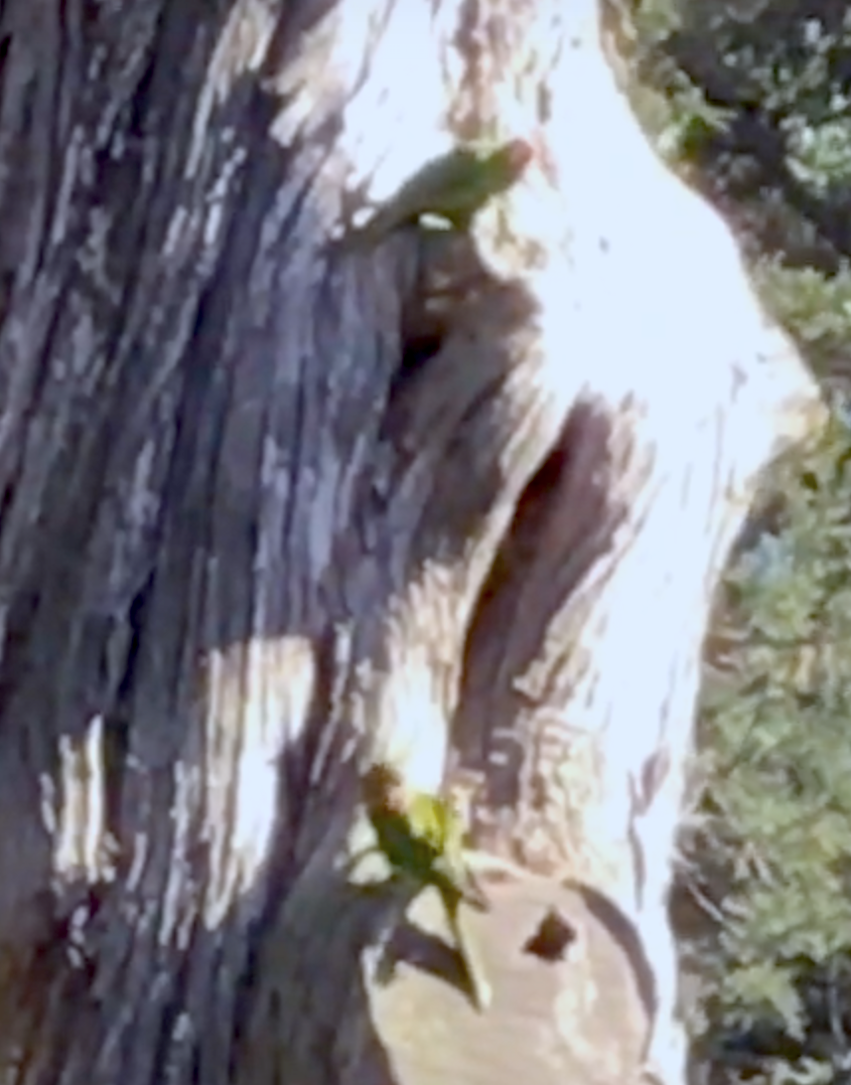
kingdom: Animalia
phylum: Chordata
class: Aves
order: Psittaciformes
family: Psittacidae
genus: Aratinga
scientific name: Aratinga erythrogenys
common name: Red-masked parakeet
